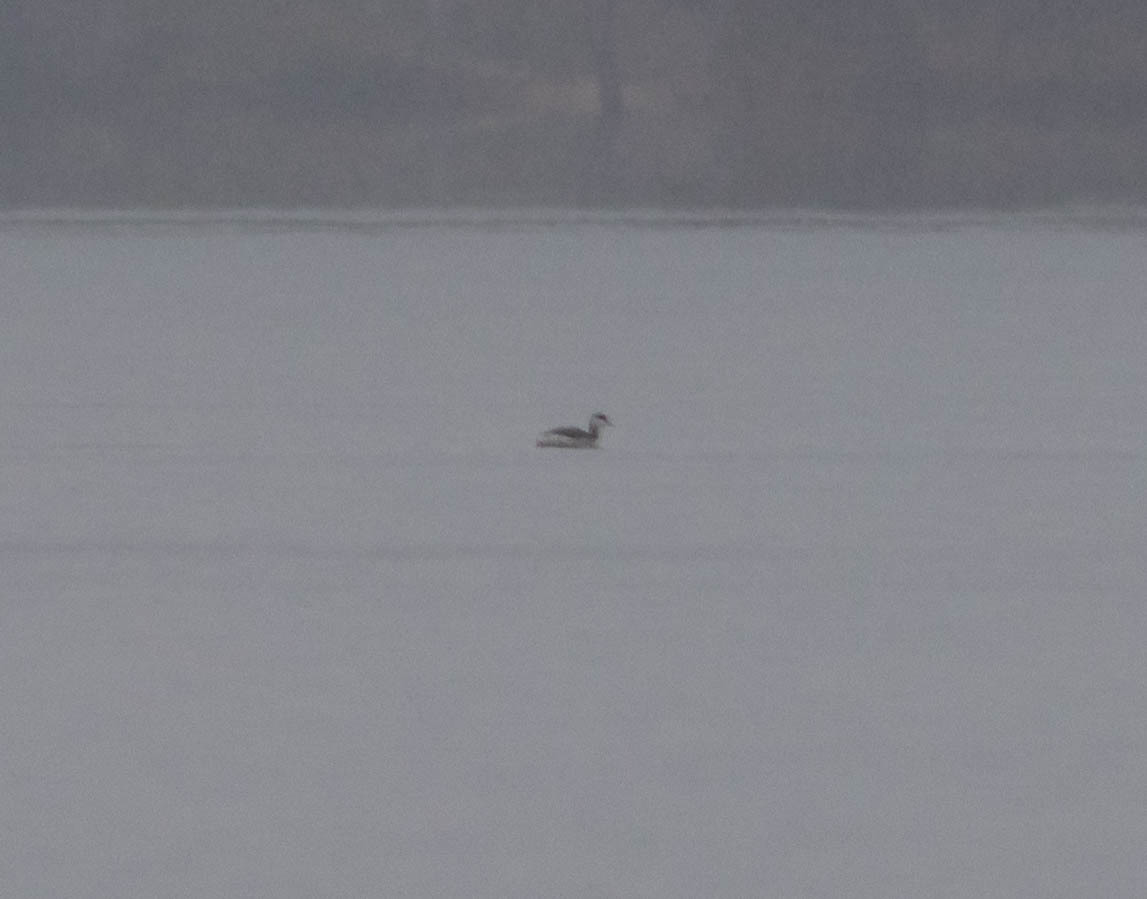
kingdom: Animalia
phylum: Chordata
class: Aves
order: Podicipediformes
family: Podicipedidae
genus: Podiceps
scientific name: Podiceps auritus
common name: Horned grebe
